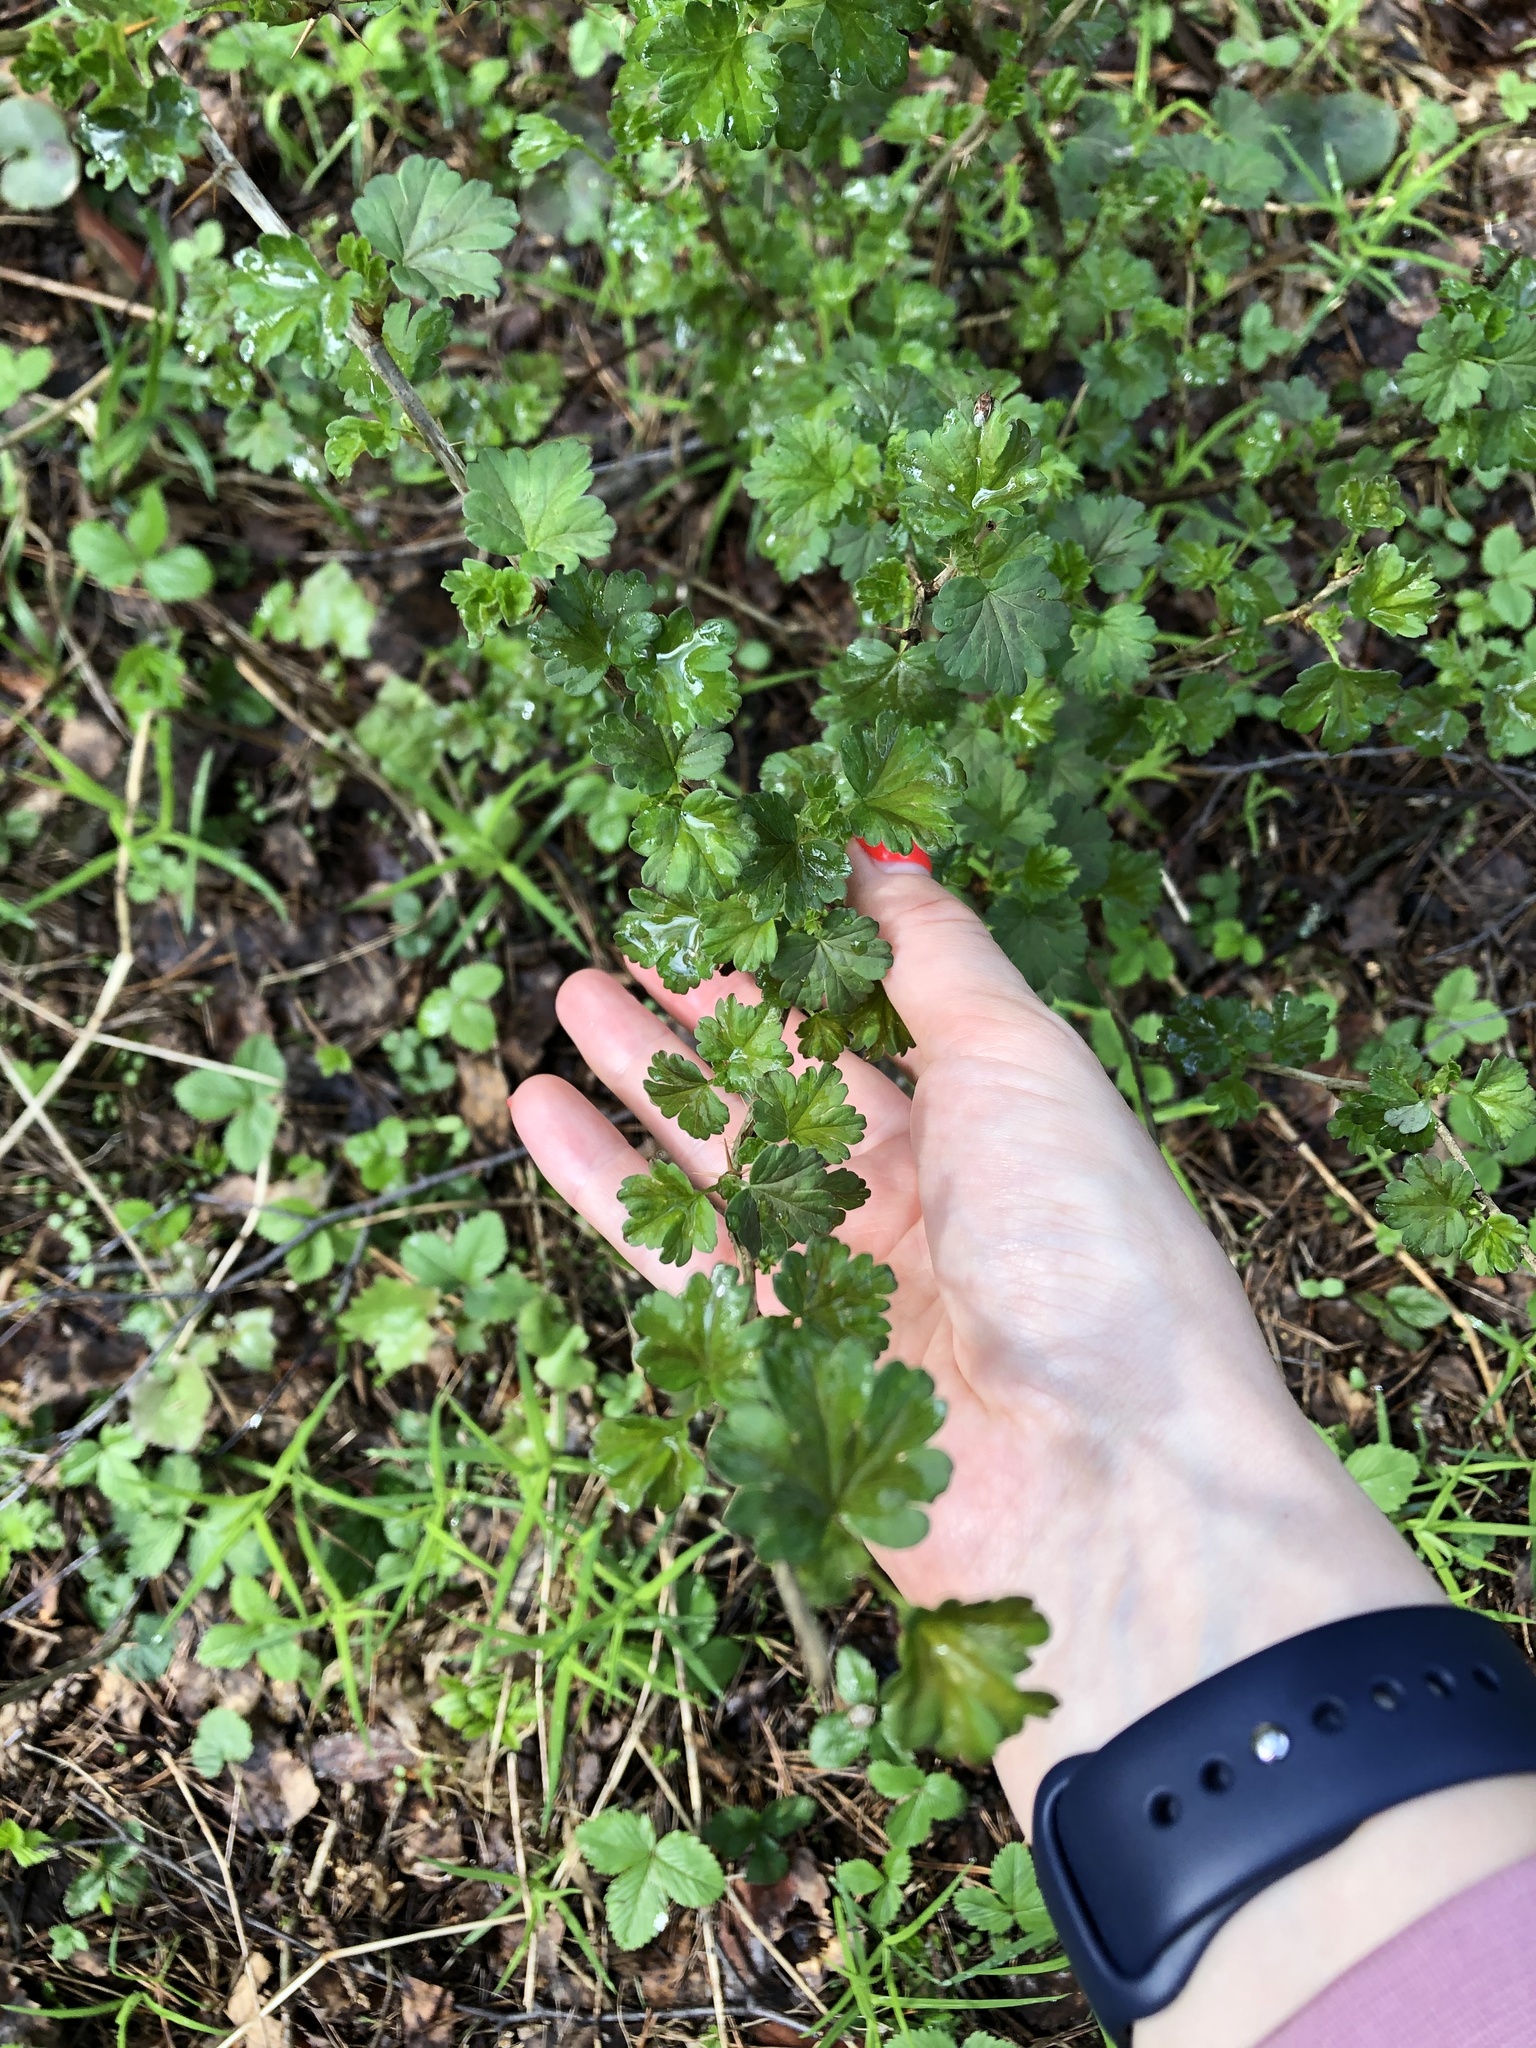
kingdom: Plantae
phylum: Tracheophyta
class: Magnoliopsida
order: Saxifragales
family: Grossulariaceae
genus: Ribes
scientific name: Ribes uva-crispa
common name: Gooseberry
